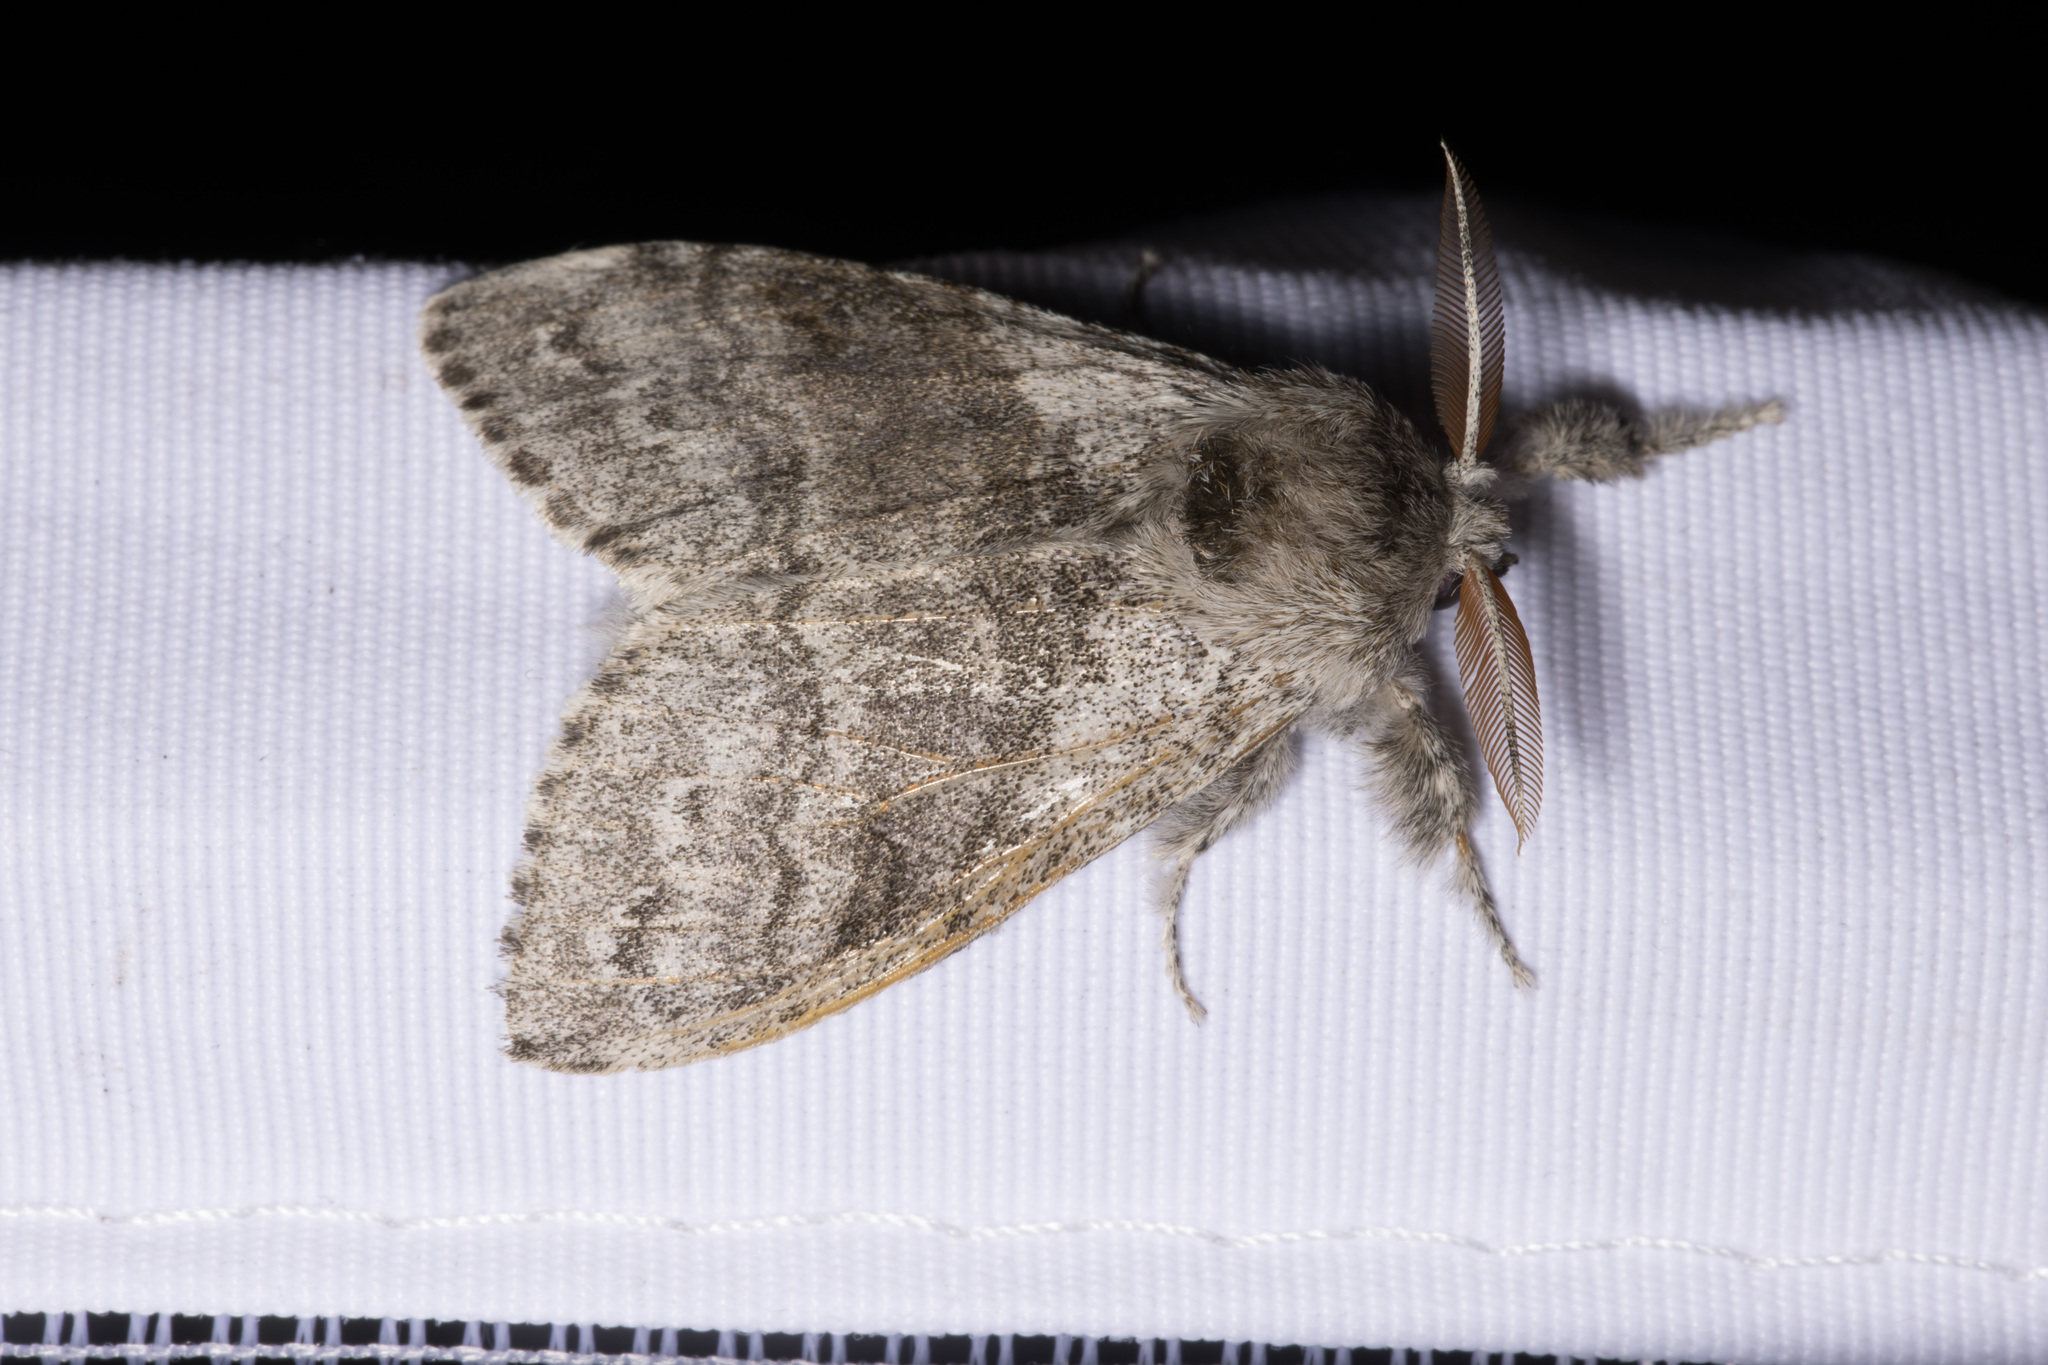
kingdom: Animalia
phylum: Arthropoda
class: Insecta
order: Lepidoptera
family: Erebidae
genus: Calliteara
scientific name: Calliteara pudibunda
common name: Pale tussock
